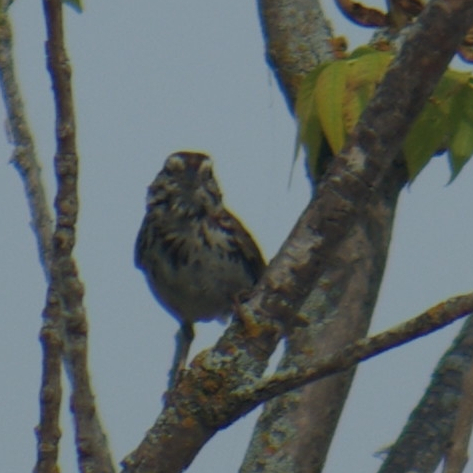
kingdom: Animalia
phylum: Chordata
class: Aves
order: Passeriformes
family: Passerellidae
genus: Melospiza
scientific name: Melospiza melodia
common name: Song sparrow
